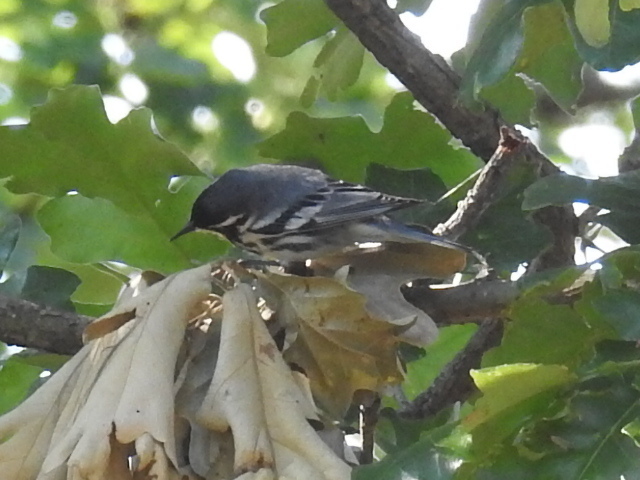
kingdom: Animalia
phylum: Chordata
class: Aves
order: Passeriformes
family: Parulidae
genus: Setophaga
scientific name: Setophaga dominica
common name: Yellow-throated warbler
